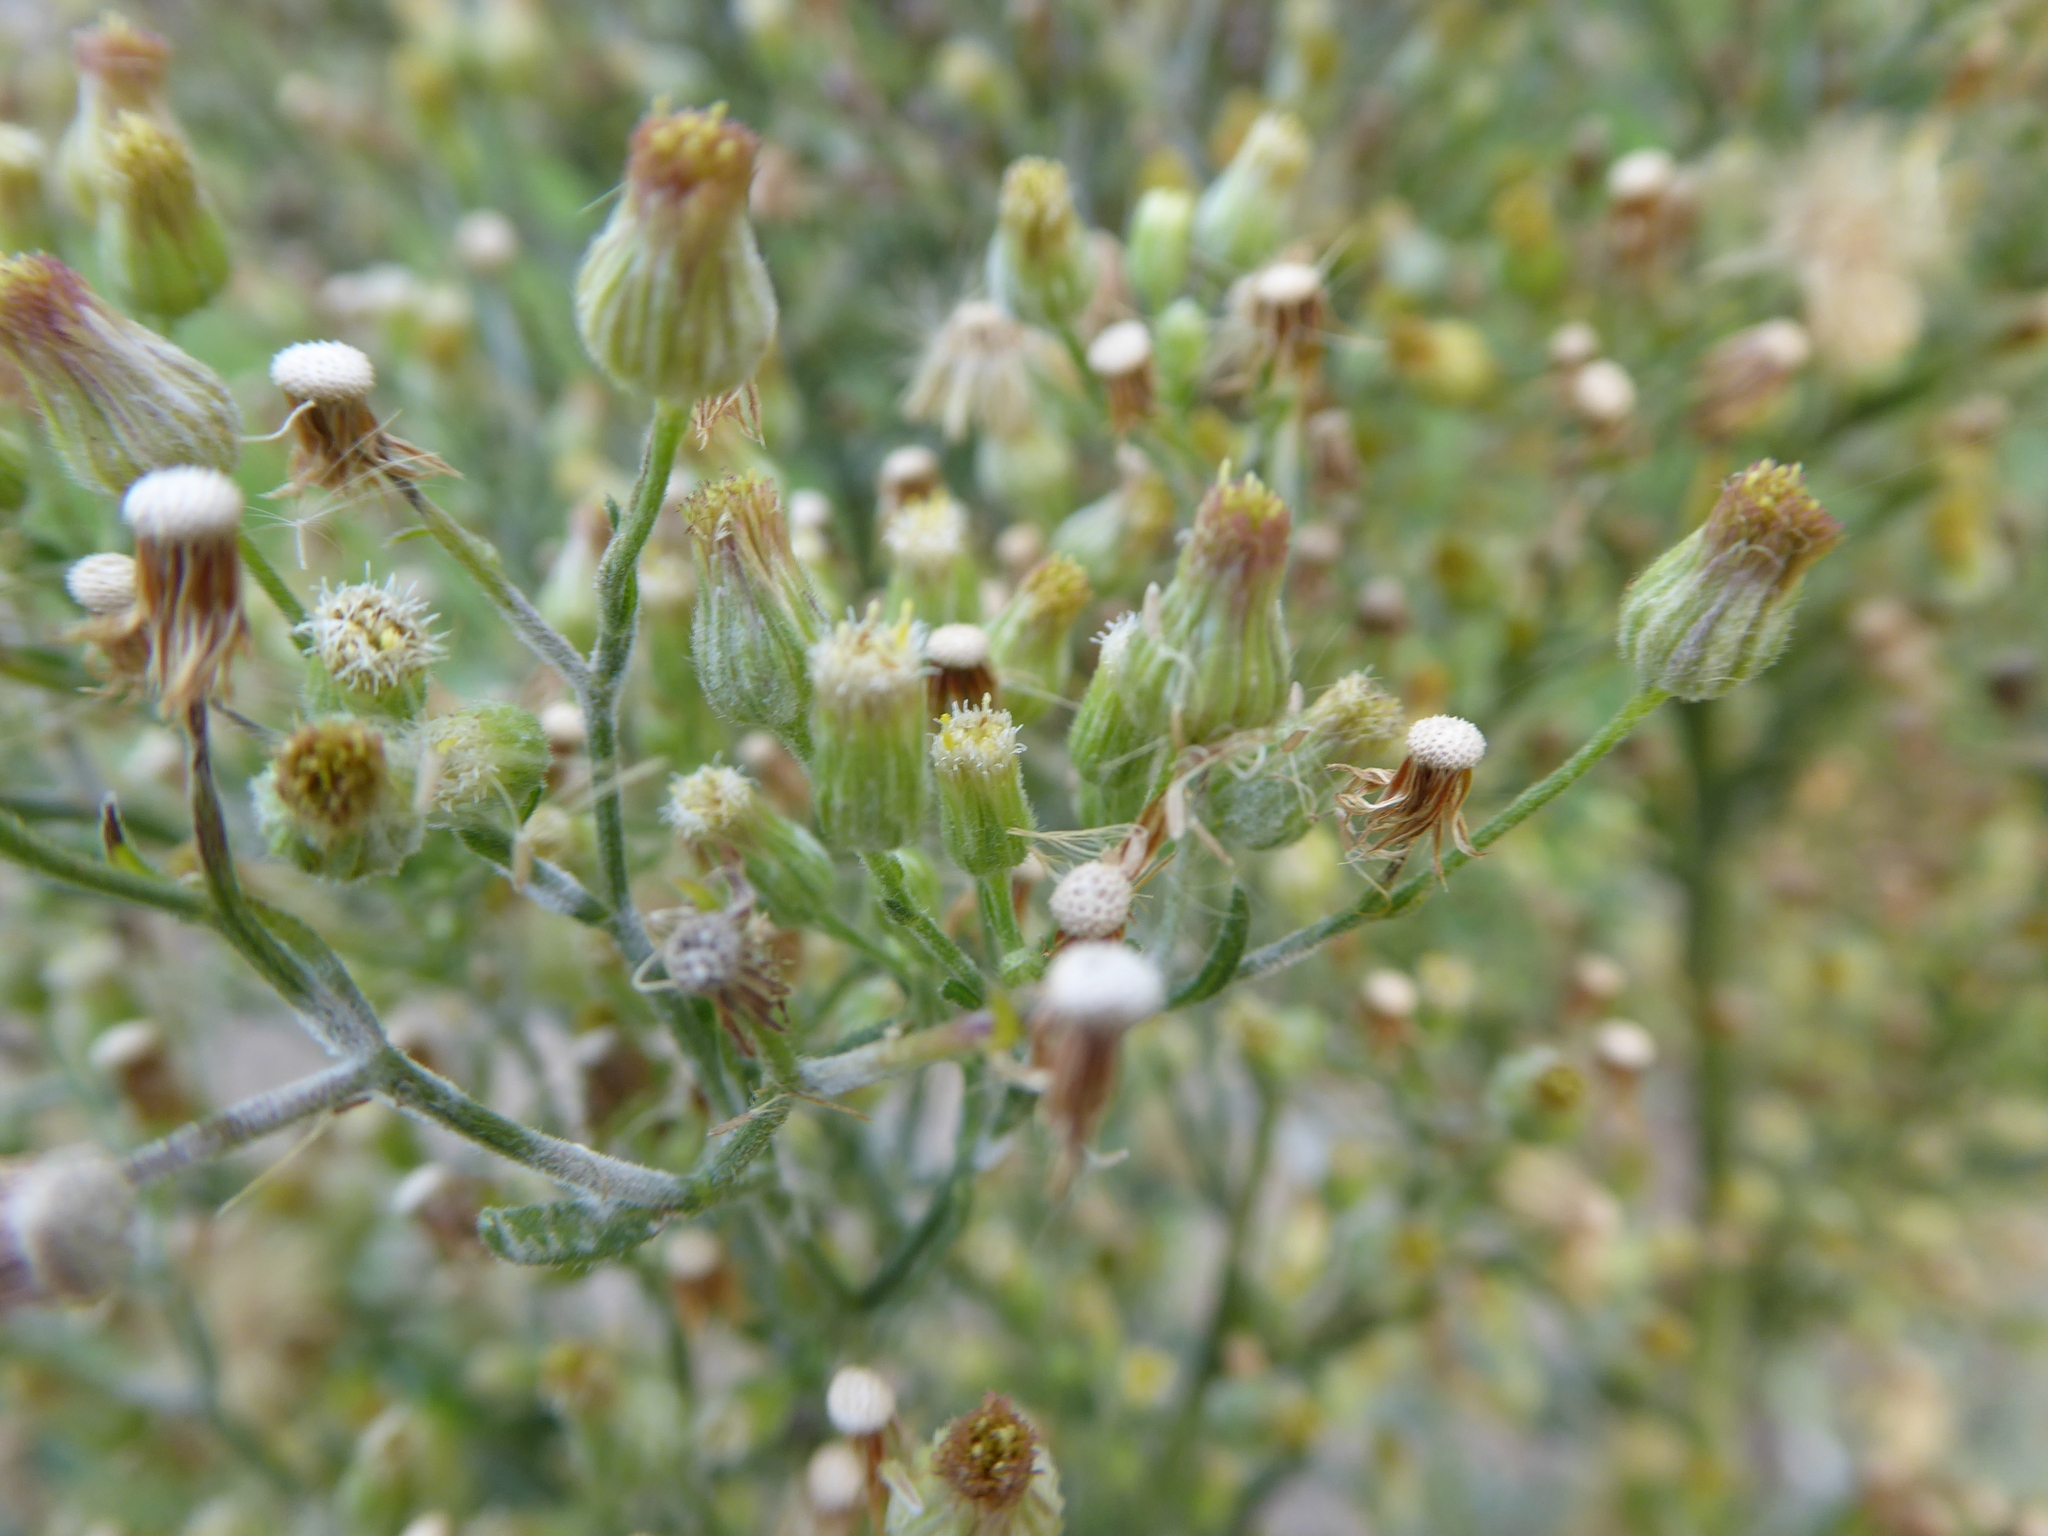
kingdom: Plantae
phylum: Tracheophyta
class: Magnoliopsida
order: Asterales
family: Asteraceae
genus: Erigeron
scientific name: Erigeron sumatrensis
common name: Daisy
